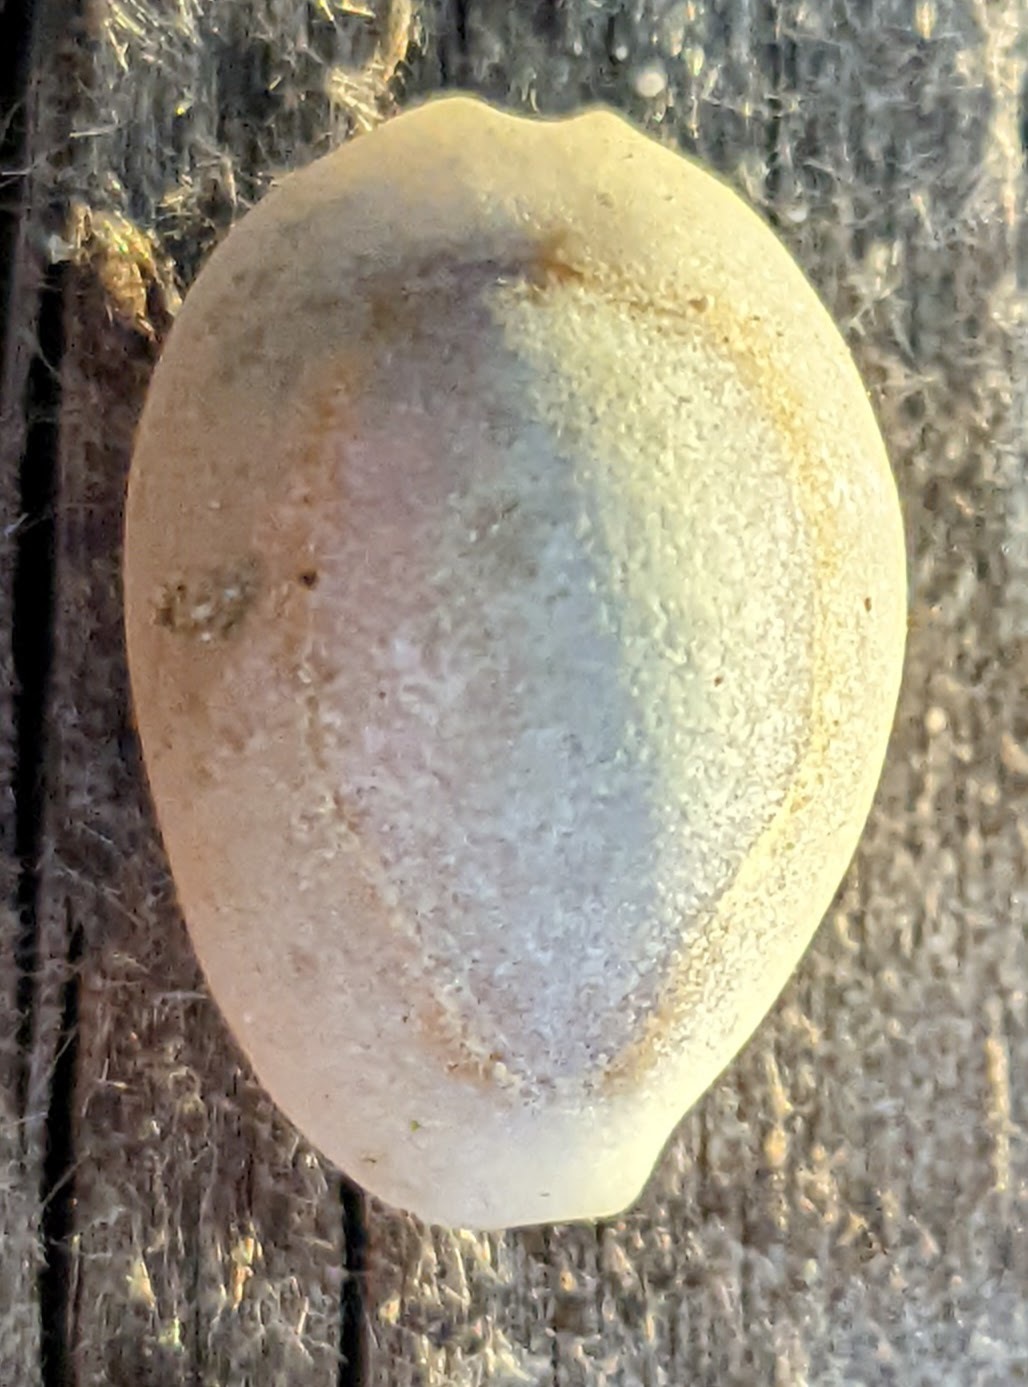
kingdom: Animalia
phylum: Mollusca
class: Gastropoda
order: Littorinimorpha
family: Cypraeidae
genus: Monetaria
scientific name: Monetaria annulus
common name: Ring cowrie
